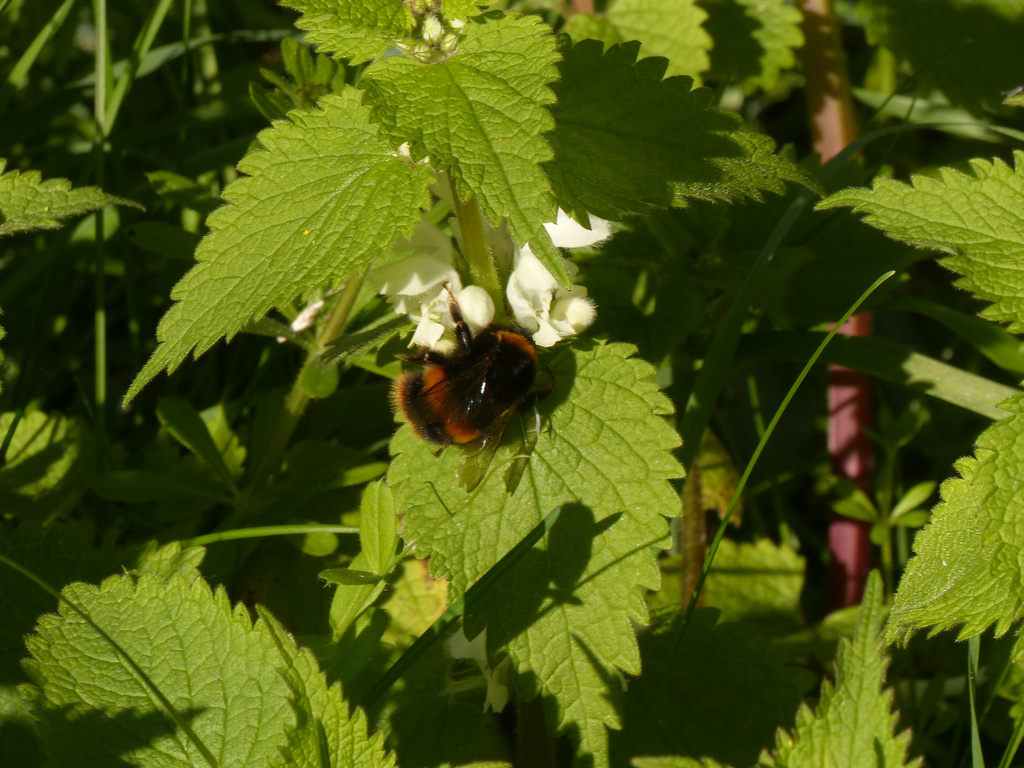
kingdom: Animalia
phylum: Arthropoda
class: Insecta
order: Hymenoptera
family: Apidae
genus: Bombus
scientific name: Bombus terrestris
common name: Buff-tailed bumblebee
